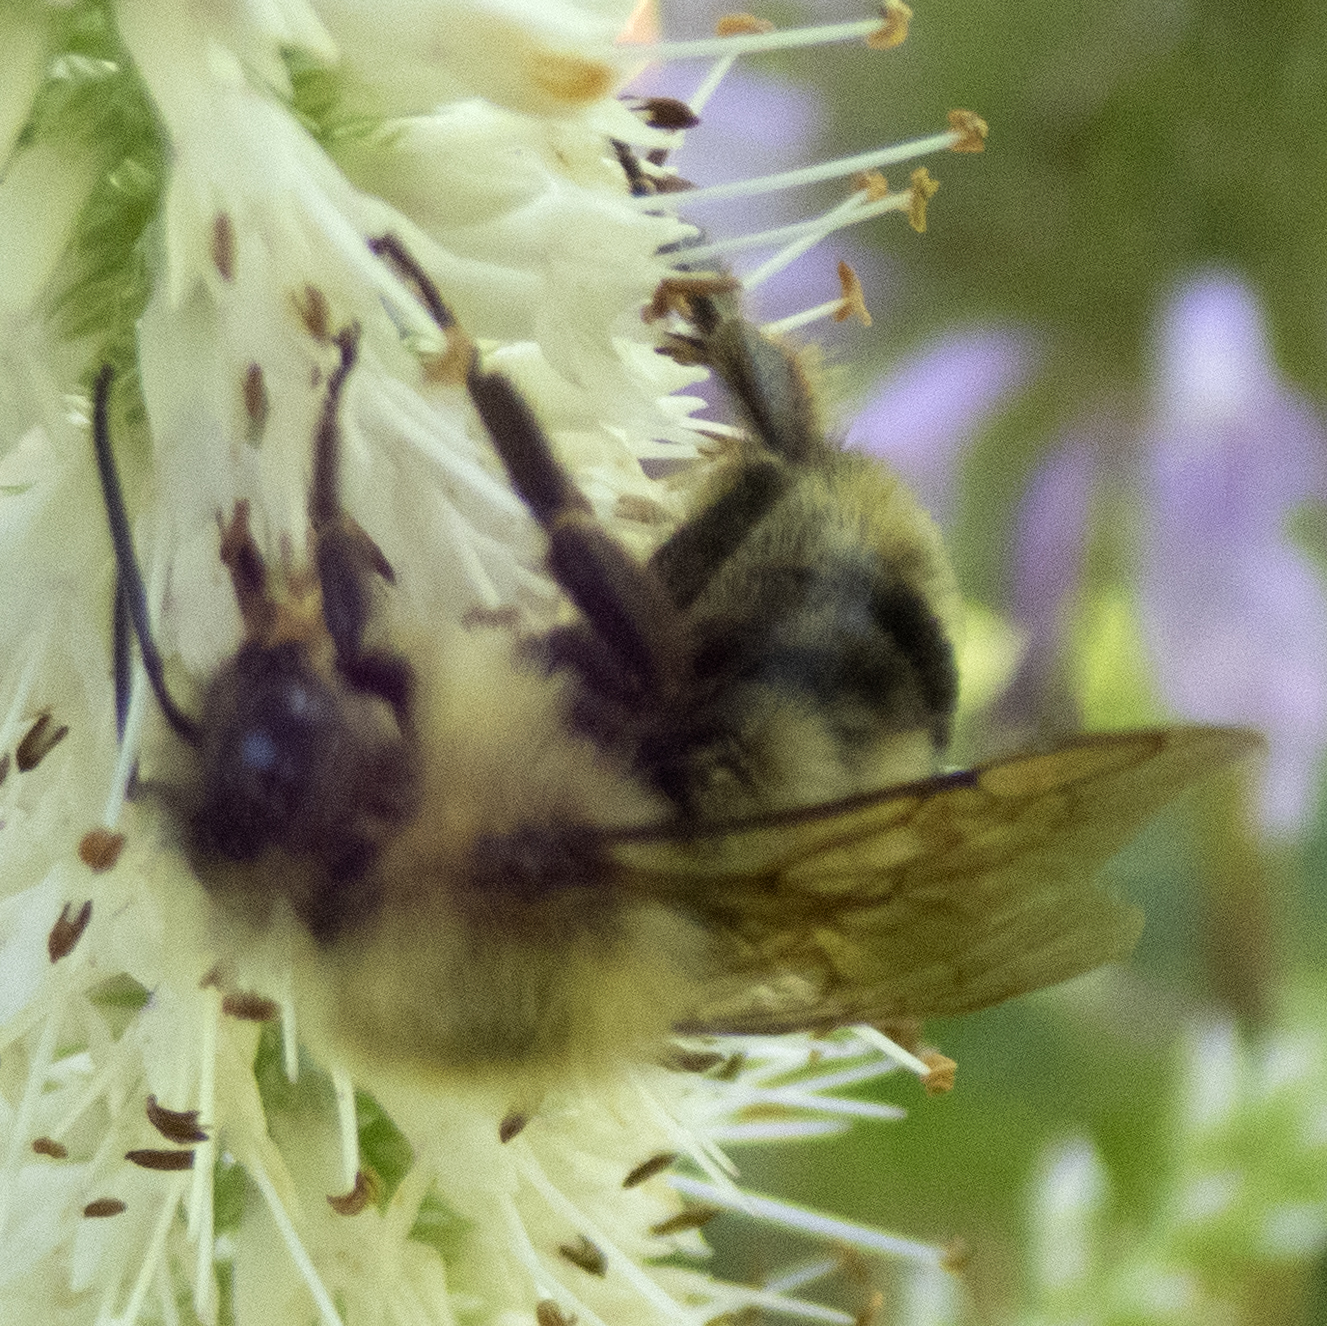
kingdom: Animalia
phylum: Arthropoda
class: Insecta
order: Hymenoptera
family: Apidae
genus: Bombus
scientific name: Bombus bimaculatus
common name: Two-spotted bumble bee
